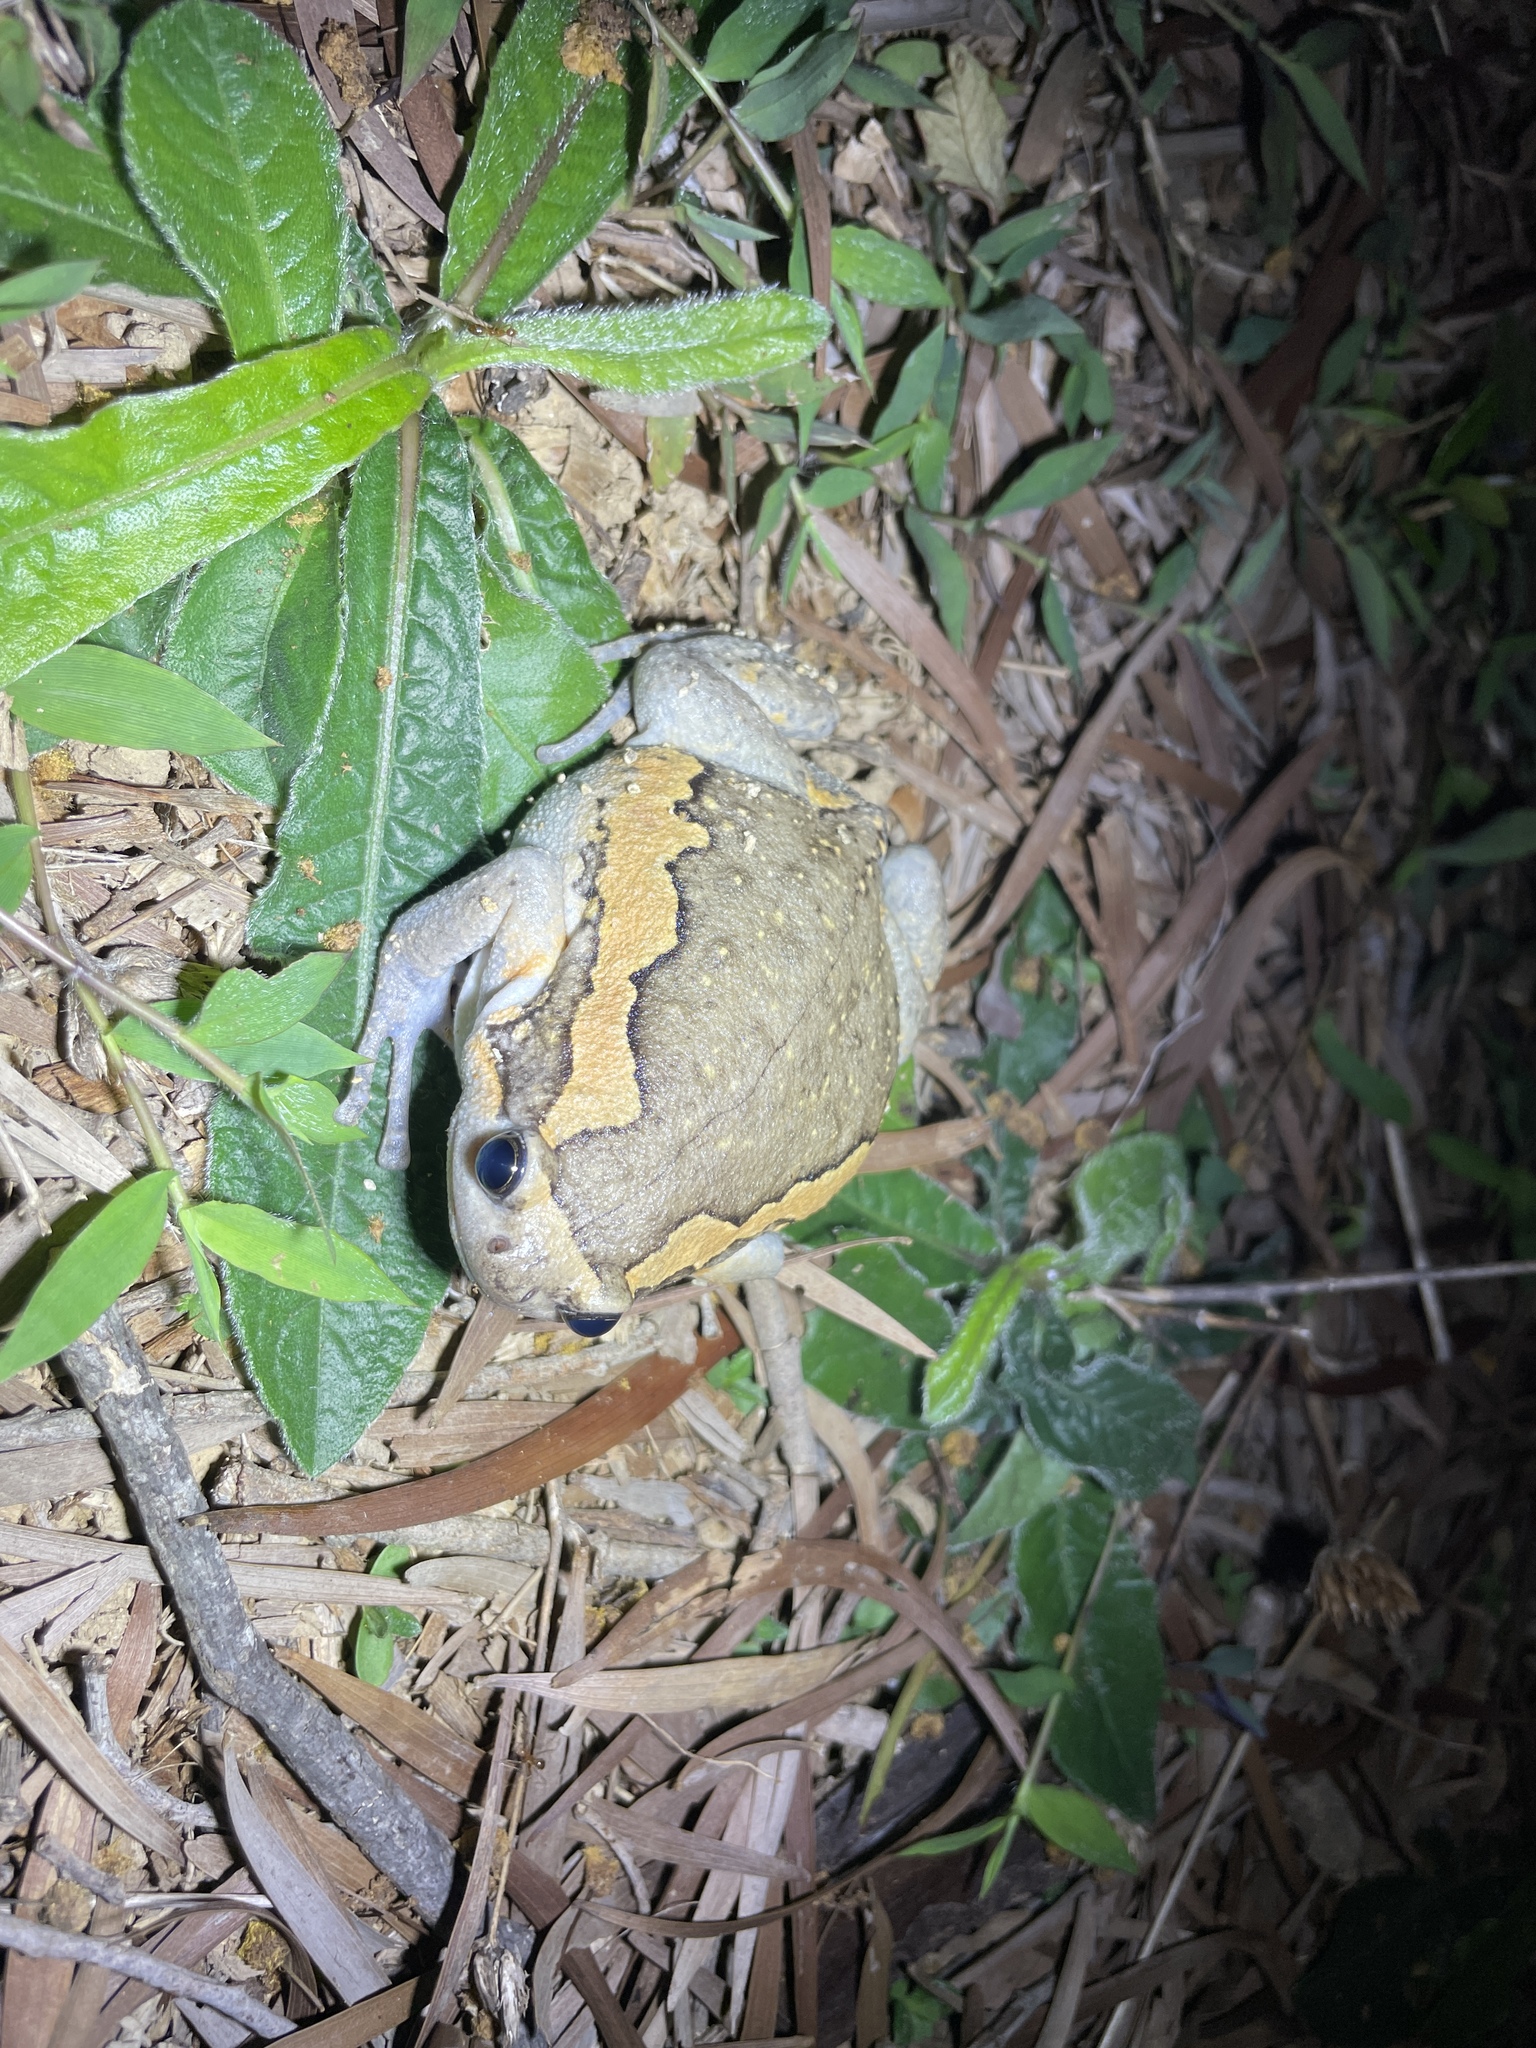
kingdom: Animalia
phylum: Chordata
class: Amphibia
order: Anura
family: Microhylidae
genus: Kaloula
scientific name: Kaloula pulchra
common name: Common,banded bullfrog
